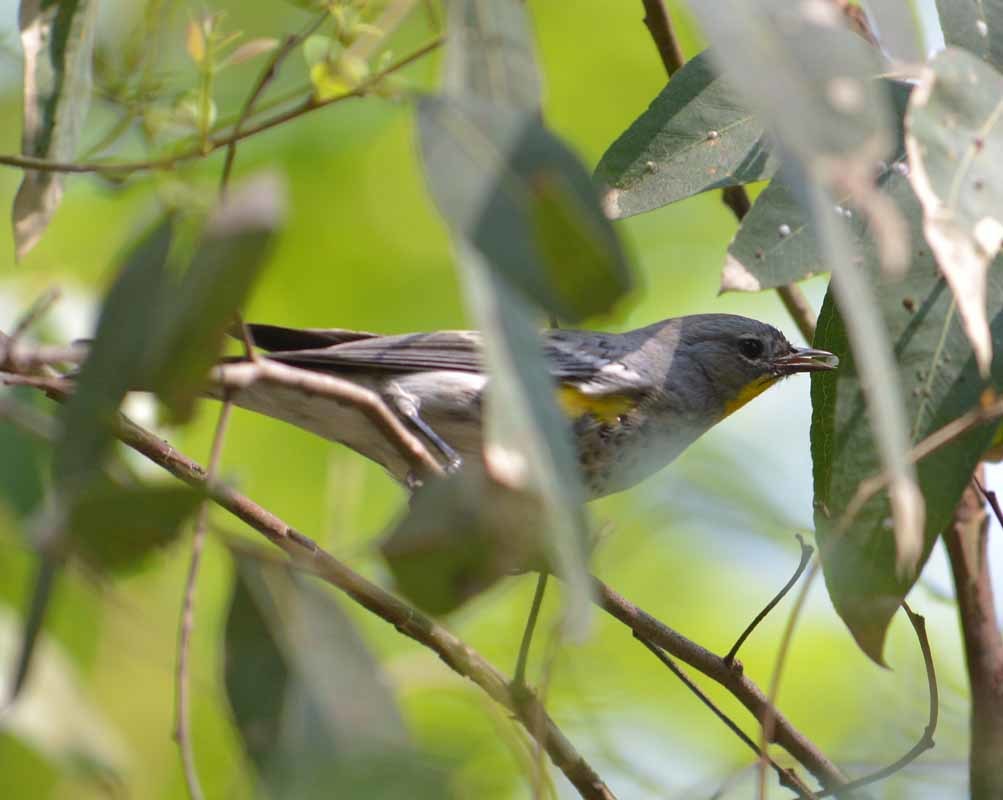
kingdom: Animalia
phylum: Chordata
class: Aves
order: Passeriformes
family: Parulidae
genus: Setophaga
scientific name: Setophaga coronata
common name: Myrtle warbler
